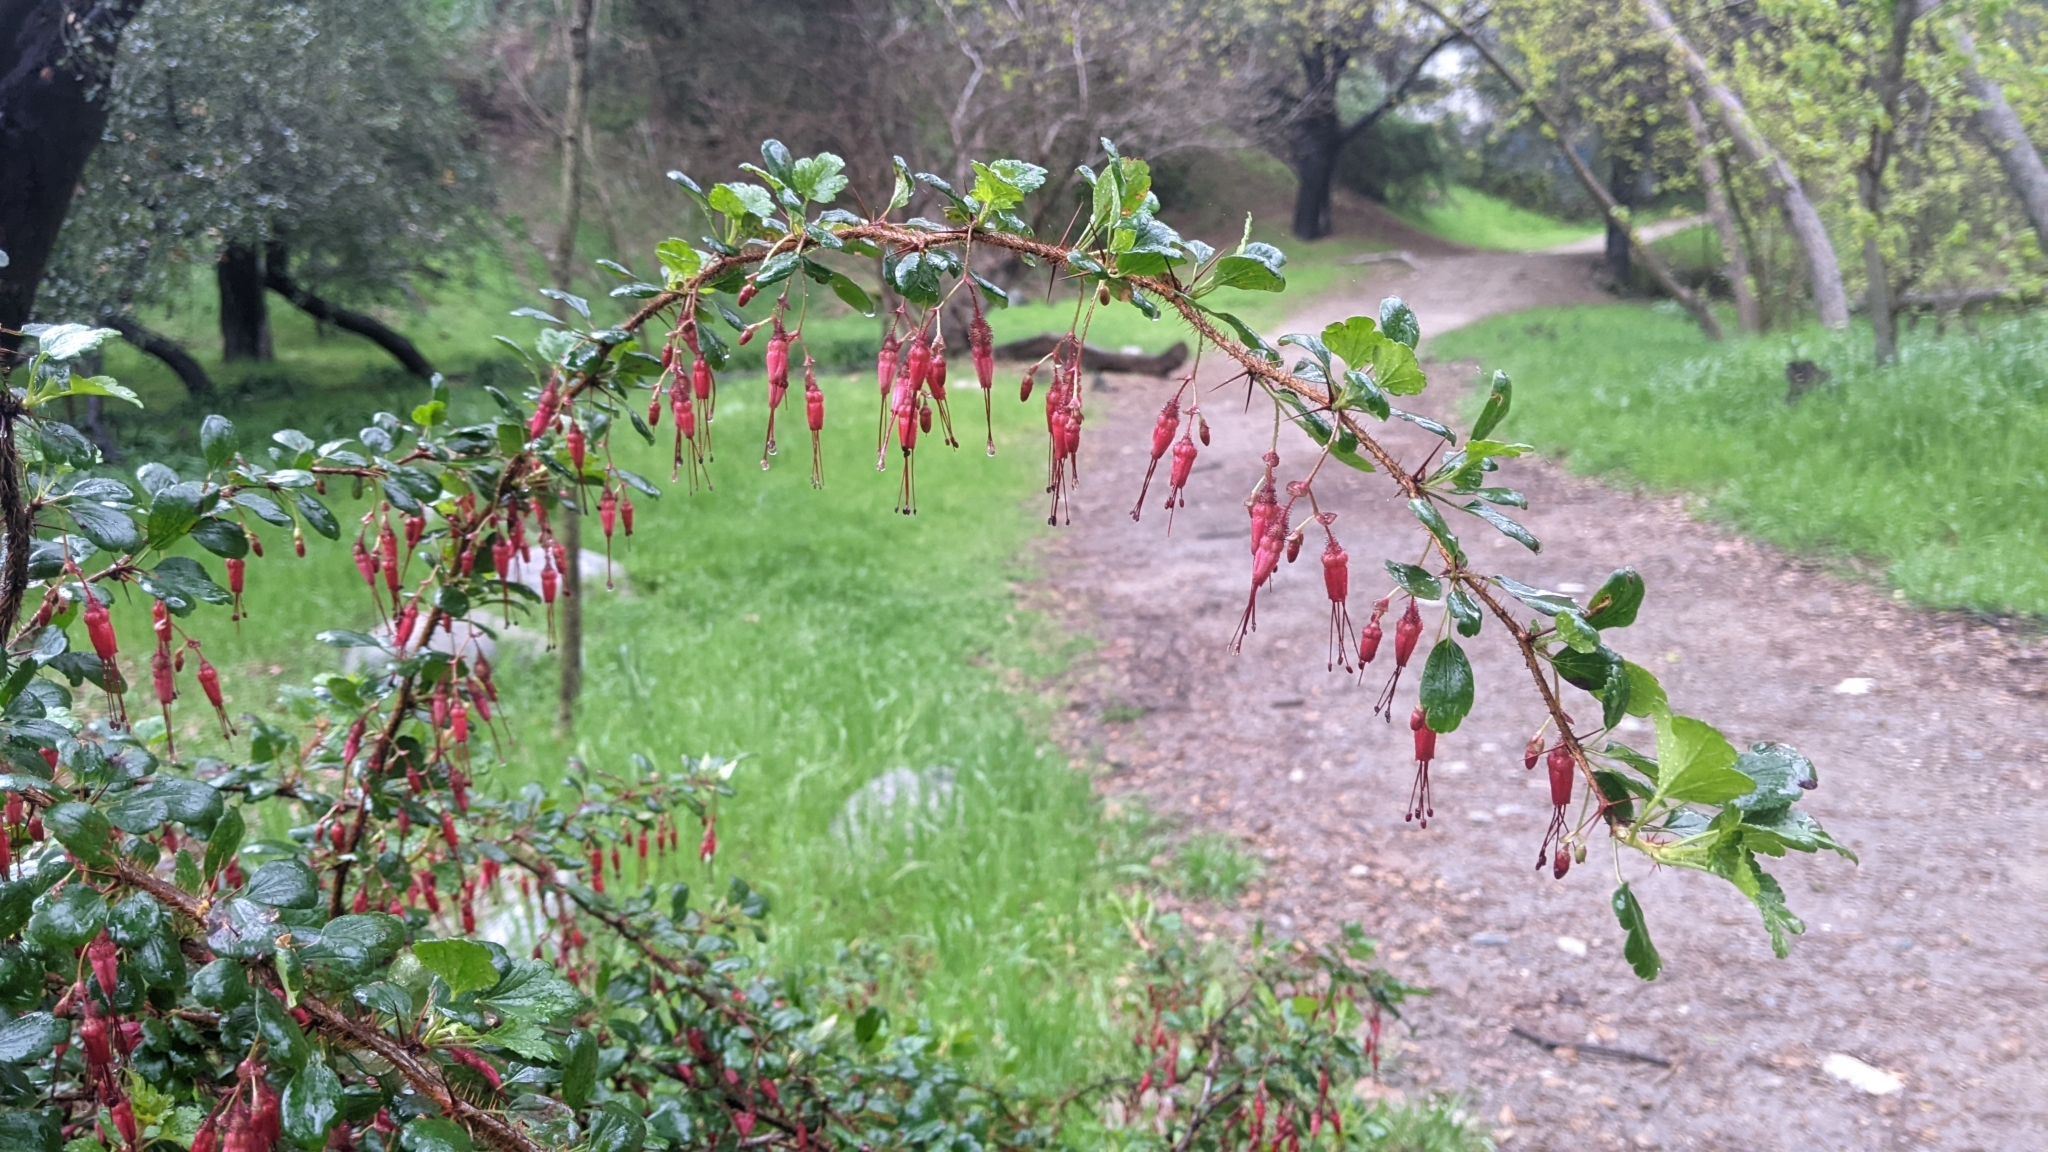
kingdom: Plantae
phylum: Tracheophyta
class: Magnoliopsida
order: Saxifragales
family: Grossulariaceae
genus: Ribes
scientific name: Ribes speciosum
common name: Fuchsia-flower gooseberry
